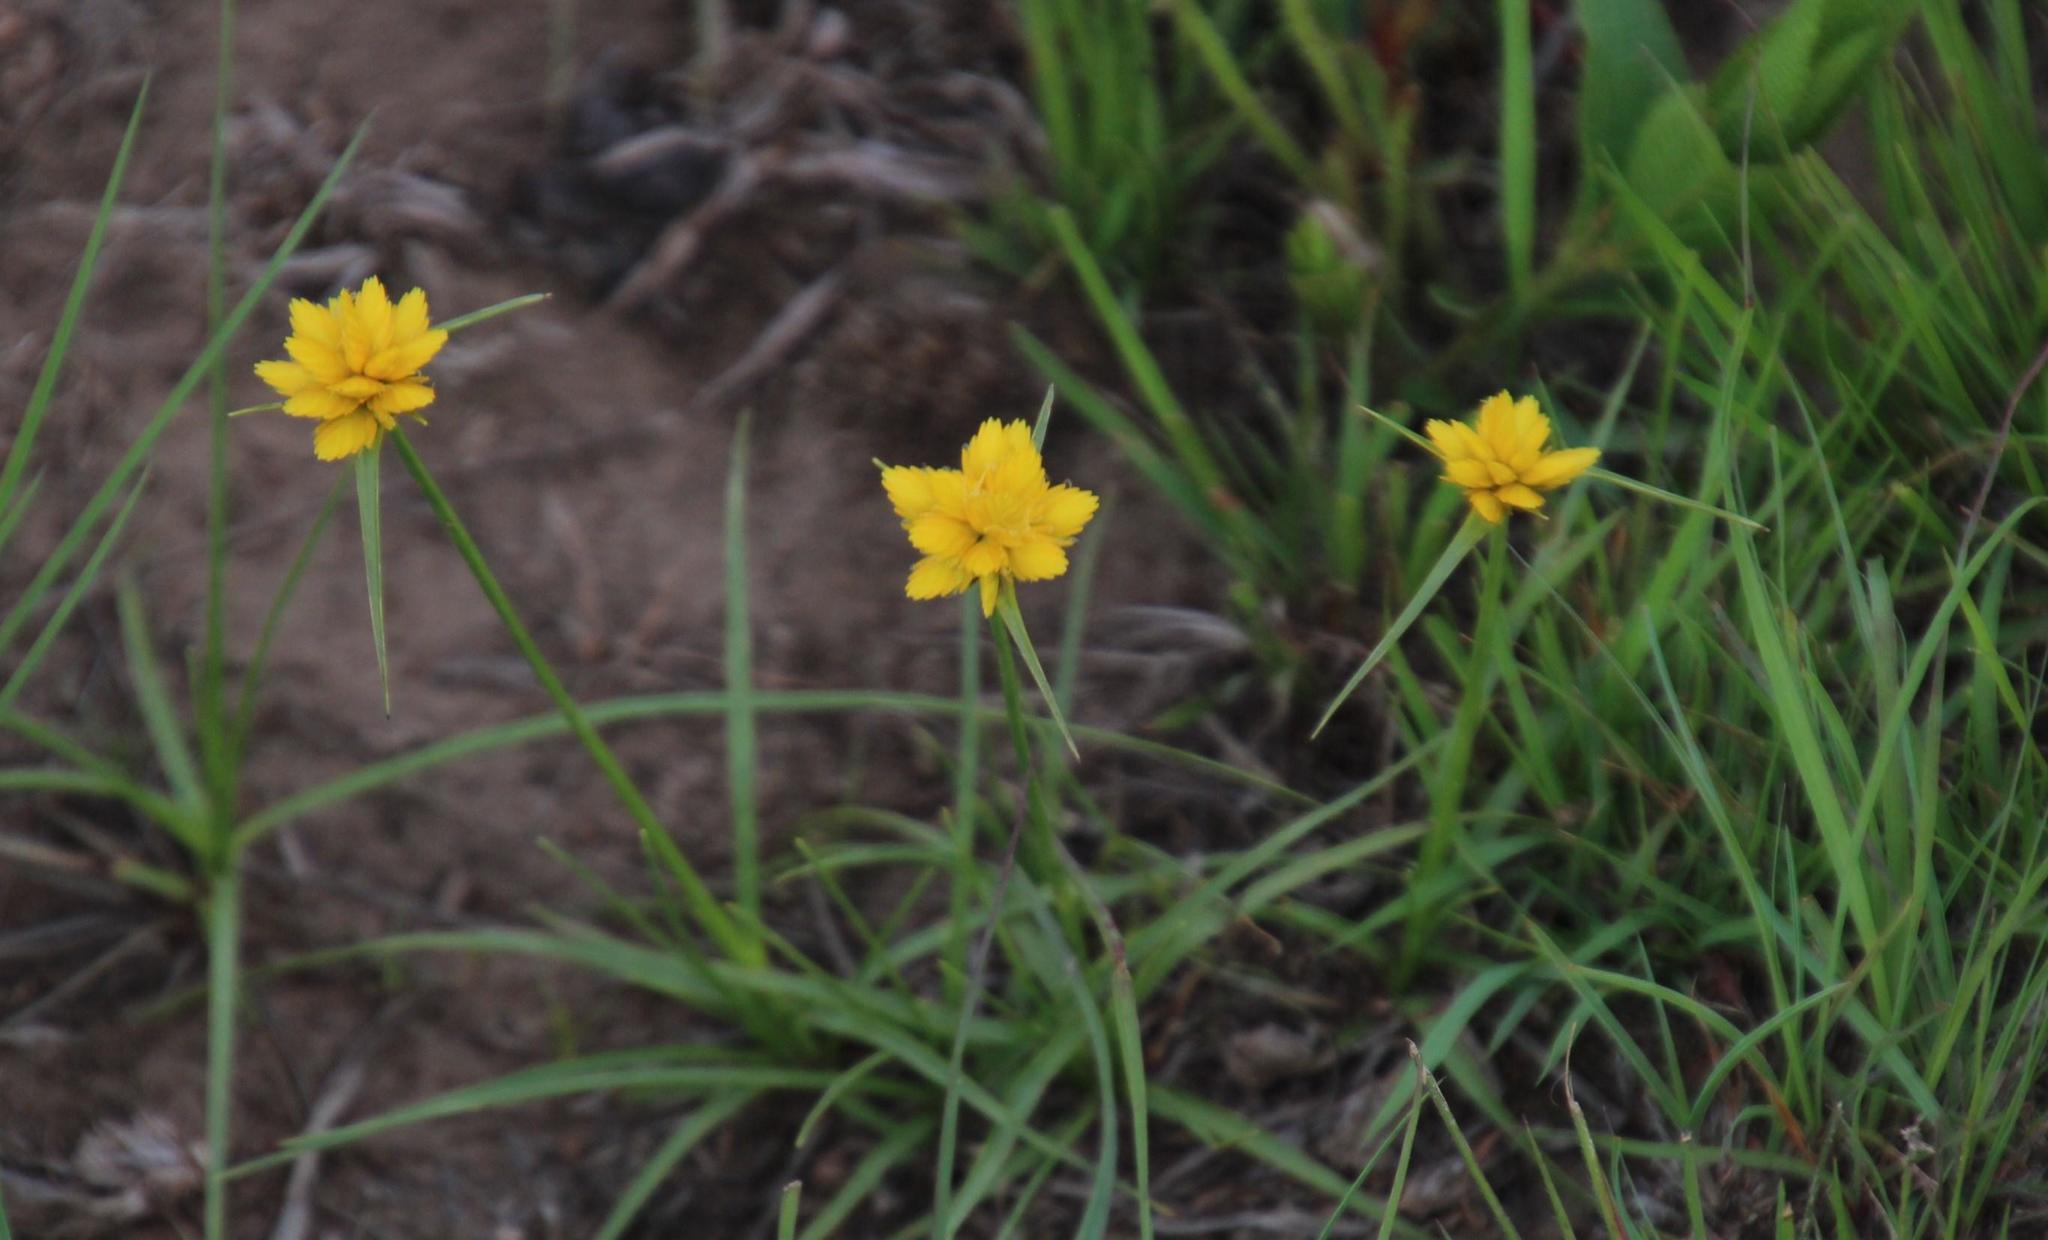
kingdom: Plantae
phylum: Tracheophyta
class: Liliopsida
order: Poales
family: Cyperaceae
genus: Cyperus
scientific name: Cyperus sphaerocephalus
